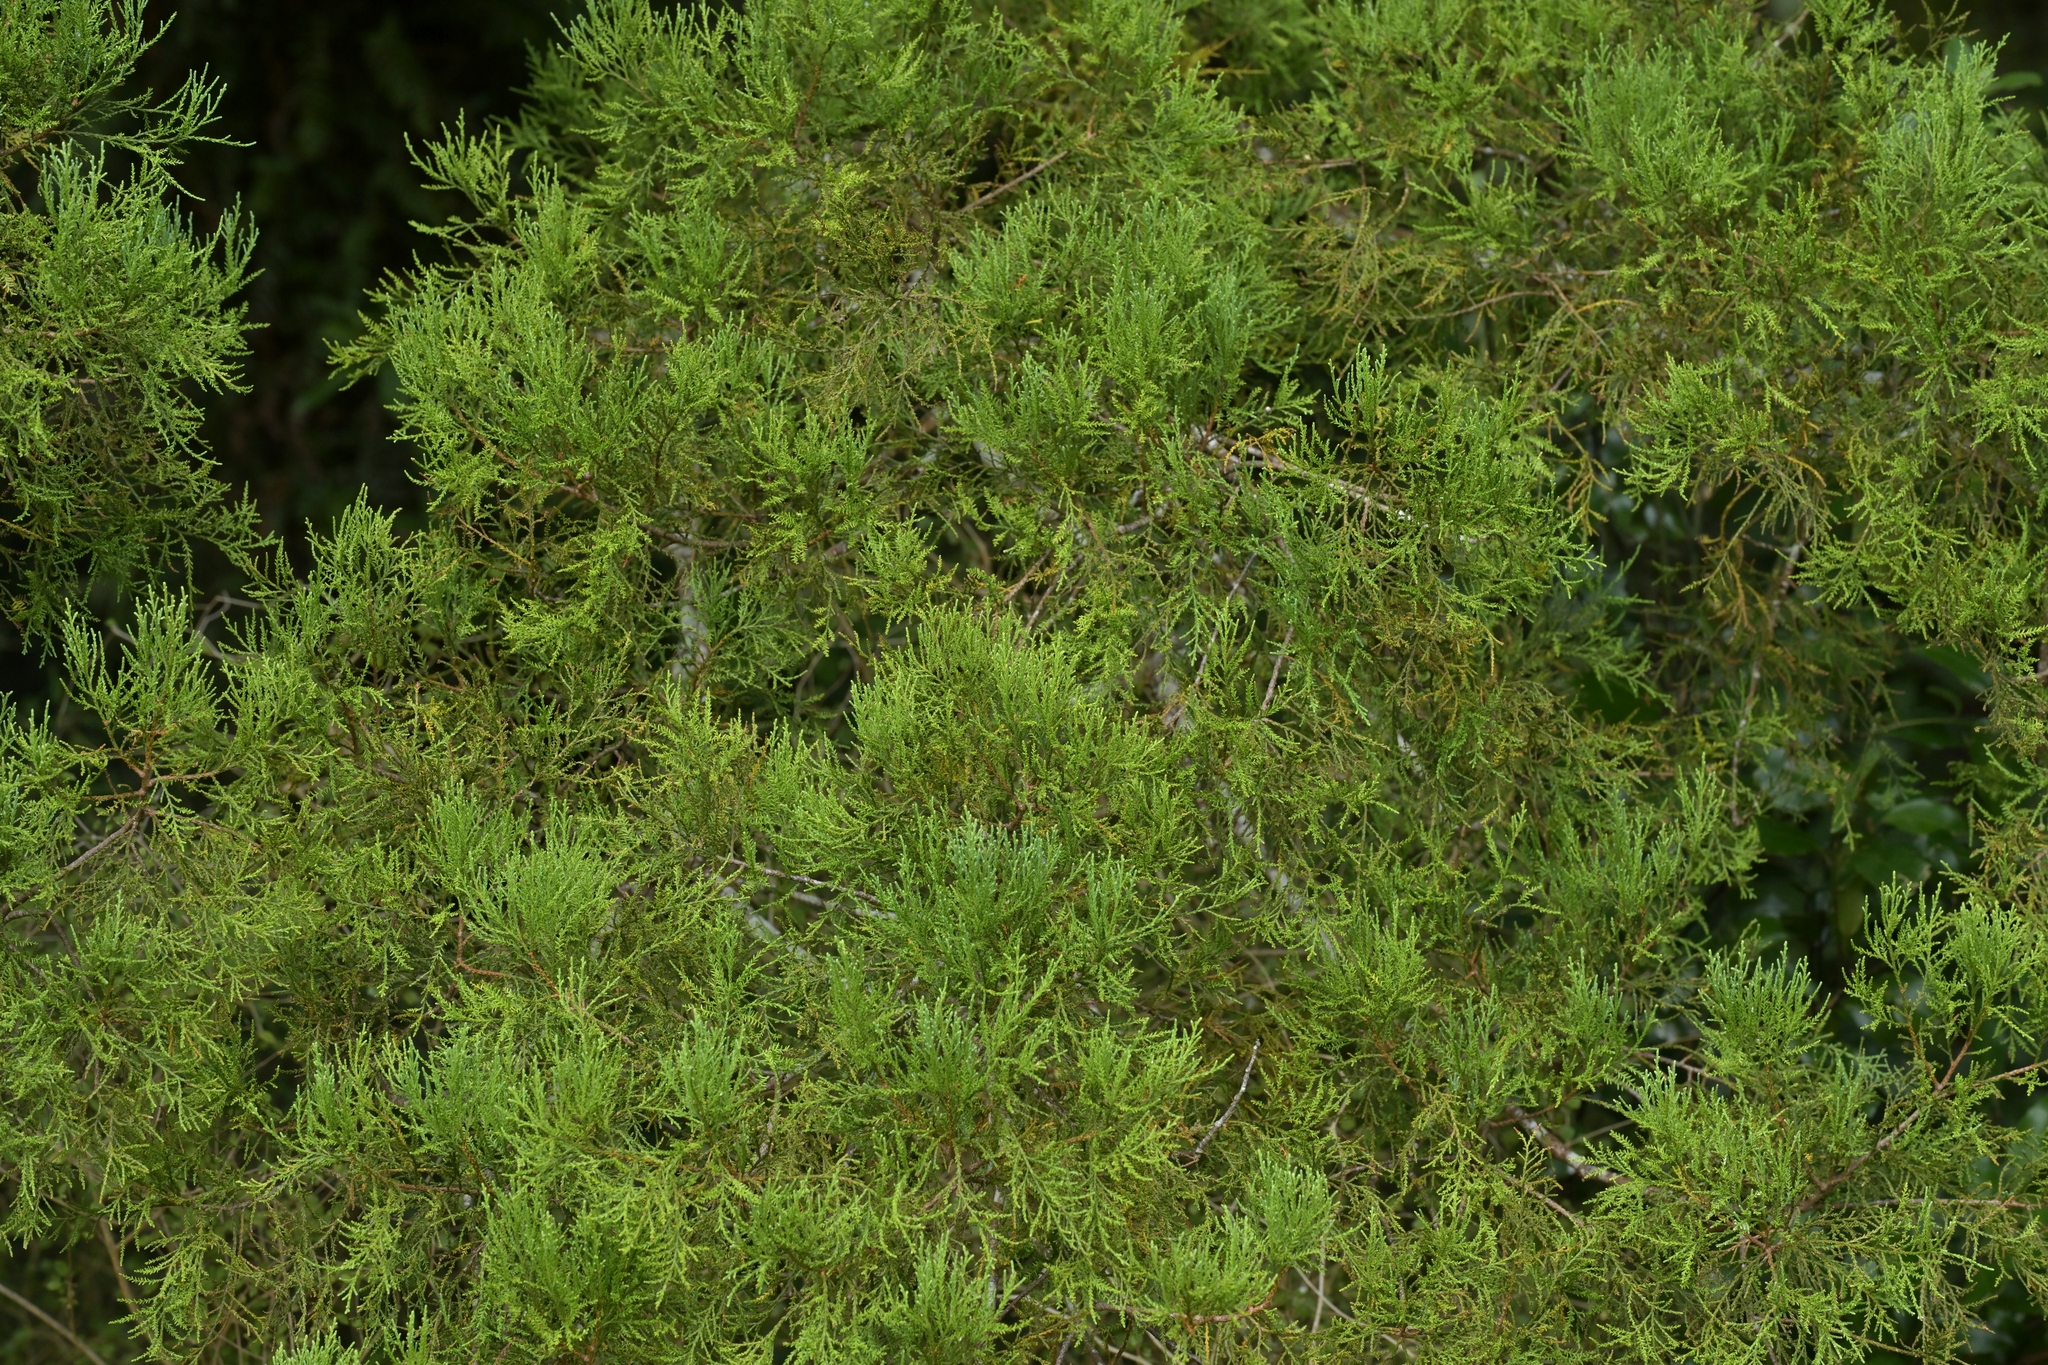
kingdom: Plantae
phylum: Tracheophyta
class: Pinopsida
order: Pinales
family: Podocarpaceae
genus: Dacrydium
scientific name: Dacrydium cupressinum
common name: Red pine
